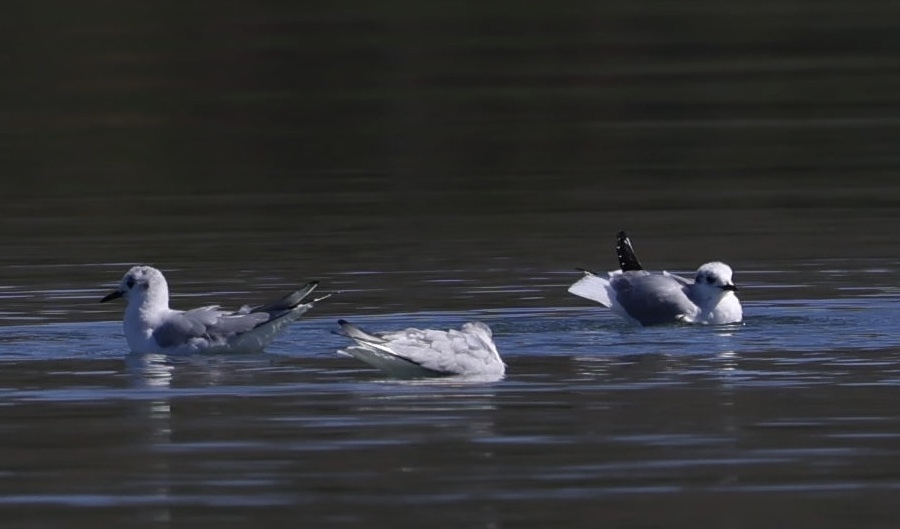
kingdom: Animalia
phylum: Chordata
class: Aves
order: Charadriiformes
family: Laridae
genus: Chroicocephalus
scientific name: Chroicocephalus philadelphia
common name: Bonaparte's gull
